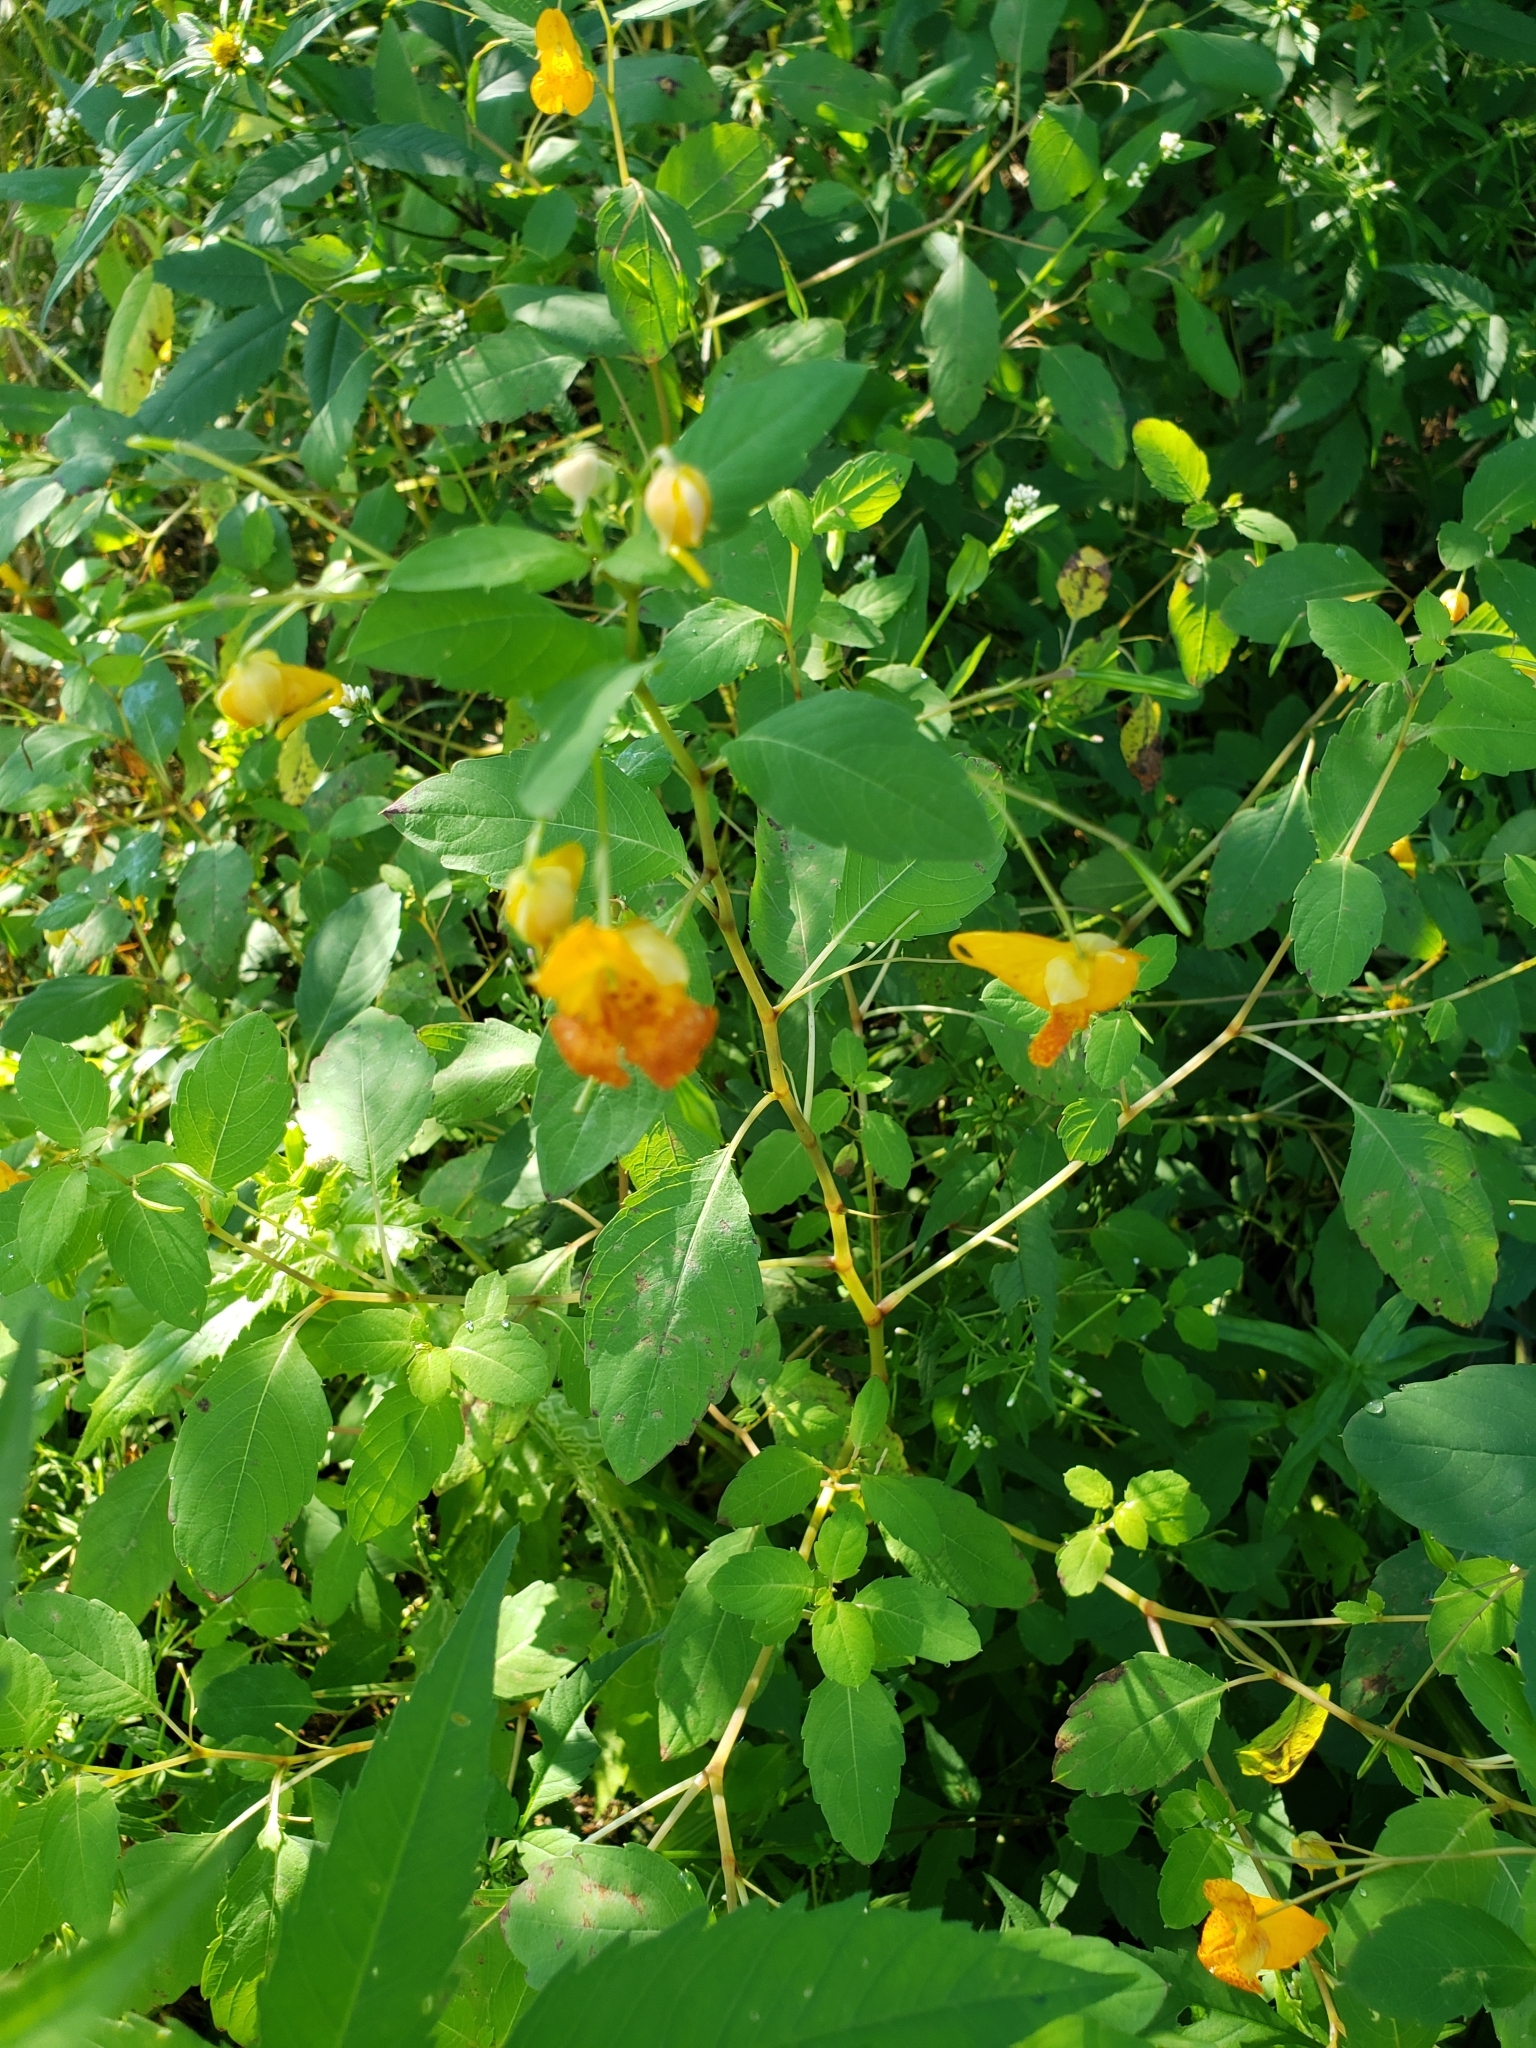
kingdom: Plantae
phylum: Tracheophyta
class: Magnoliopsida
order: Ericales
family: Balsaminaceae
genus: Impatiens
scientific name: Impatiens capensis
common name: Orange balsam
